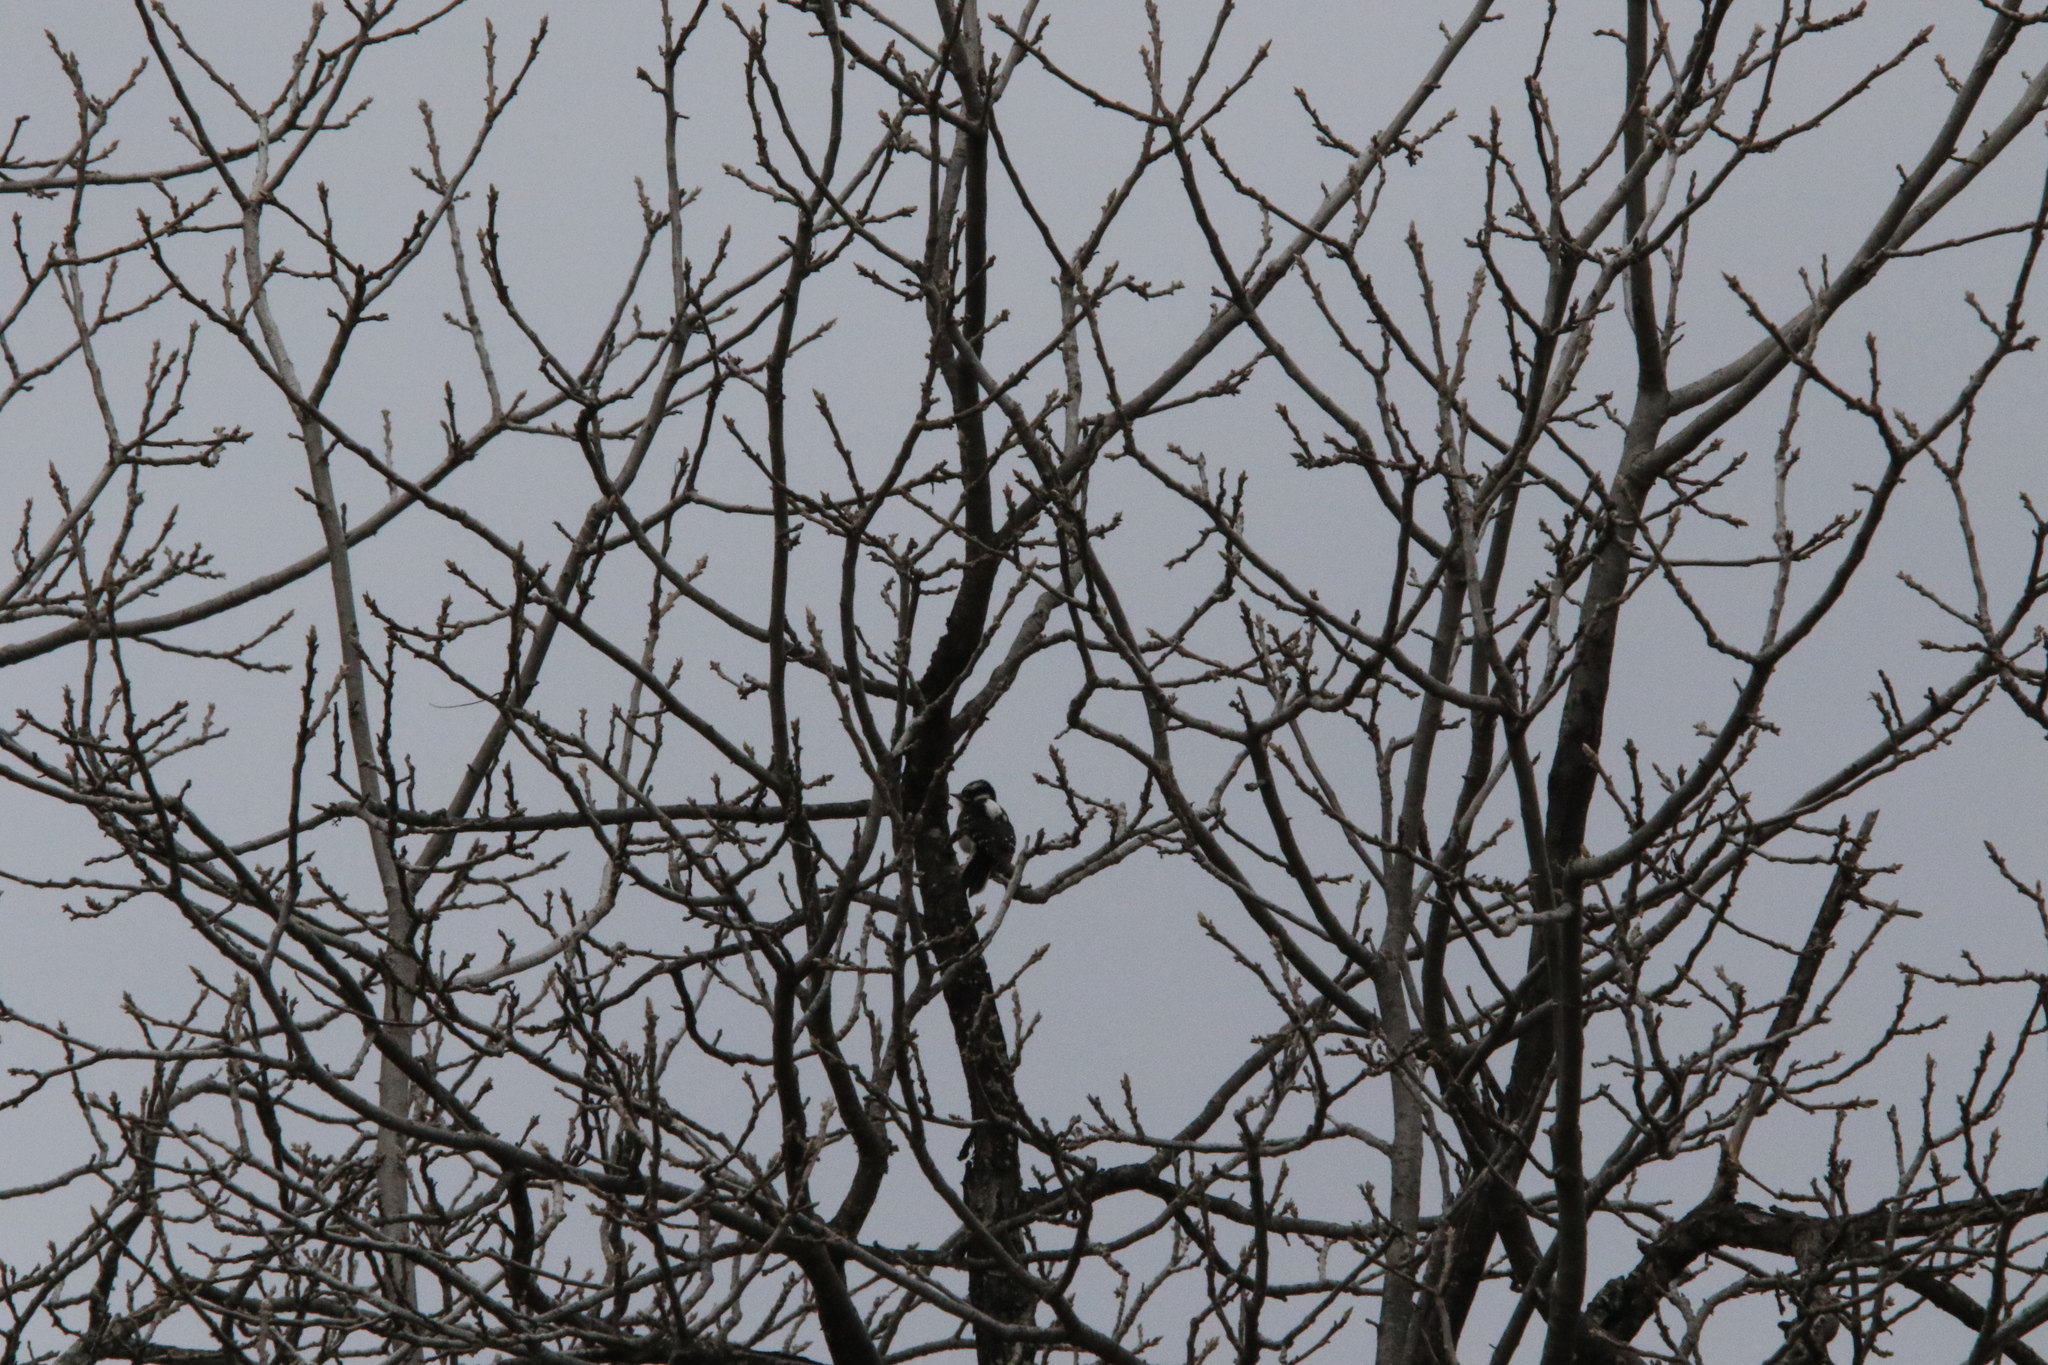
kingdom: Animalia
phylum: Chordata
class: Aves
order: Piciformes
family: Picidae
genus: Dryobates
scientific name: Dryobates pubescens
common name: Downy woodpecker
